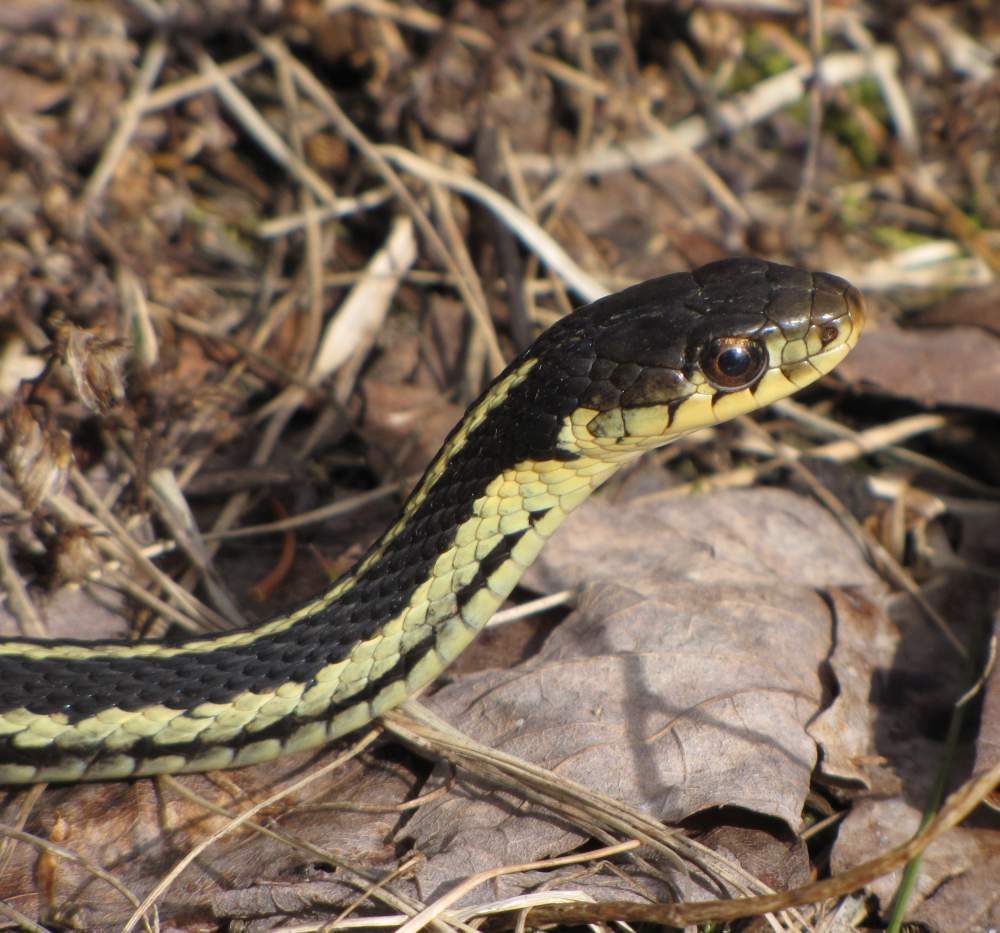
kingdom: Animalia
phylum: Chordata
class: Squamata
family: Colubridae
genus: Thamnophis
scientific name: Thamnophis sirtalis
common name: Common garter snake
